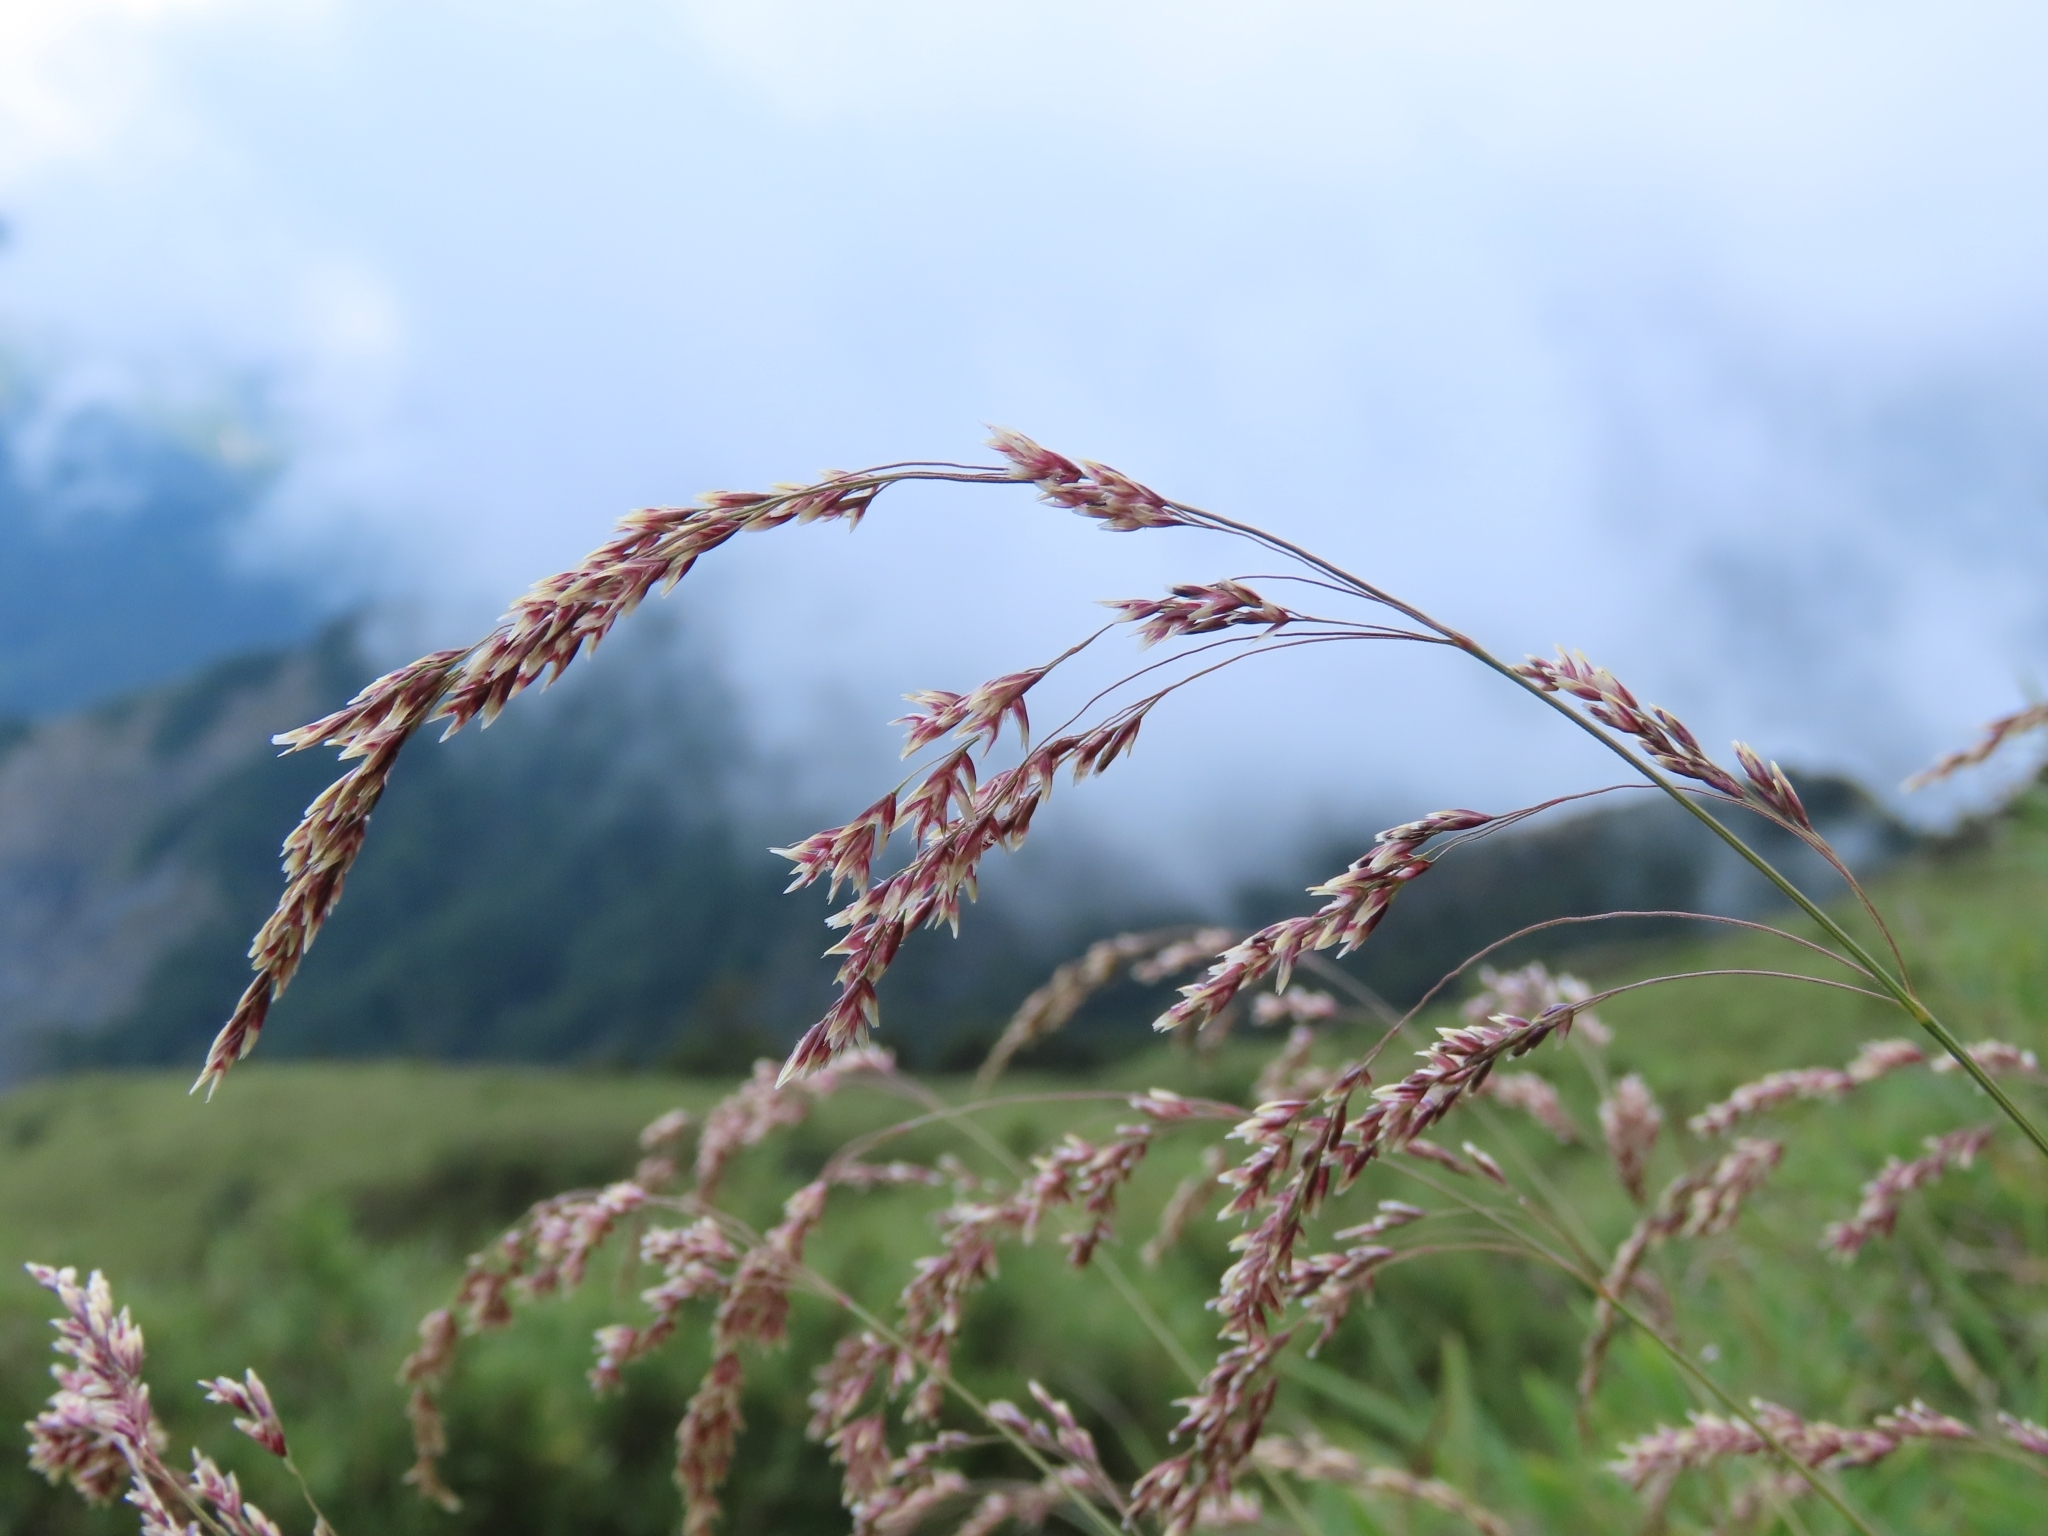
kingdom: Plantae
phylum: Tracheophyta
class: Liliopsida
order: Poales
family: Poaceae
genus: Deschampsia
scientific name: Deschampsia cespitosa
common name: Tufted hair-grass
